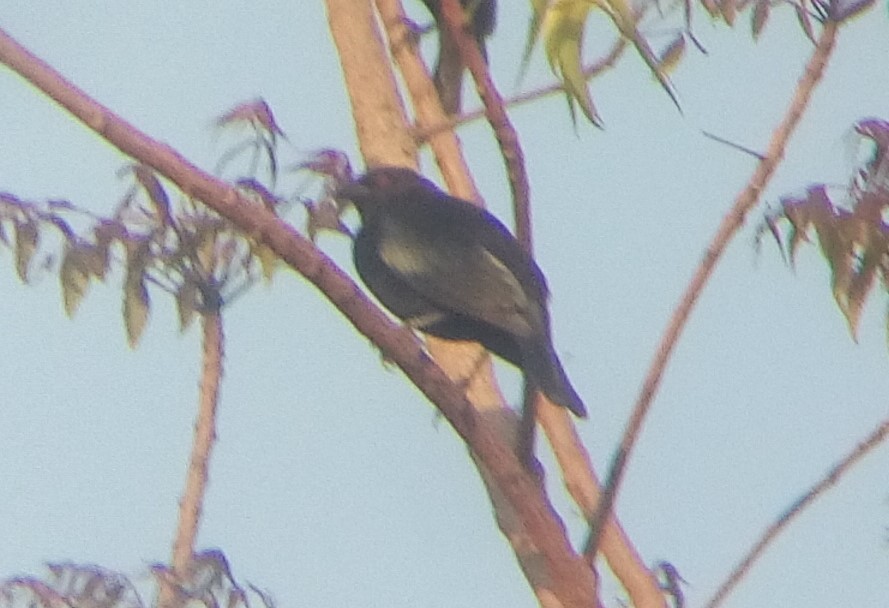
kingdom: Animalia
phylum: Chordata
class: Aves
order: Passeriformes
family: Icteridae
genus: Molothrus
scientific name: Molothrus aeneus
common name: Bronzed cowbird
